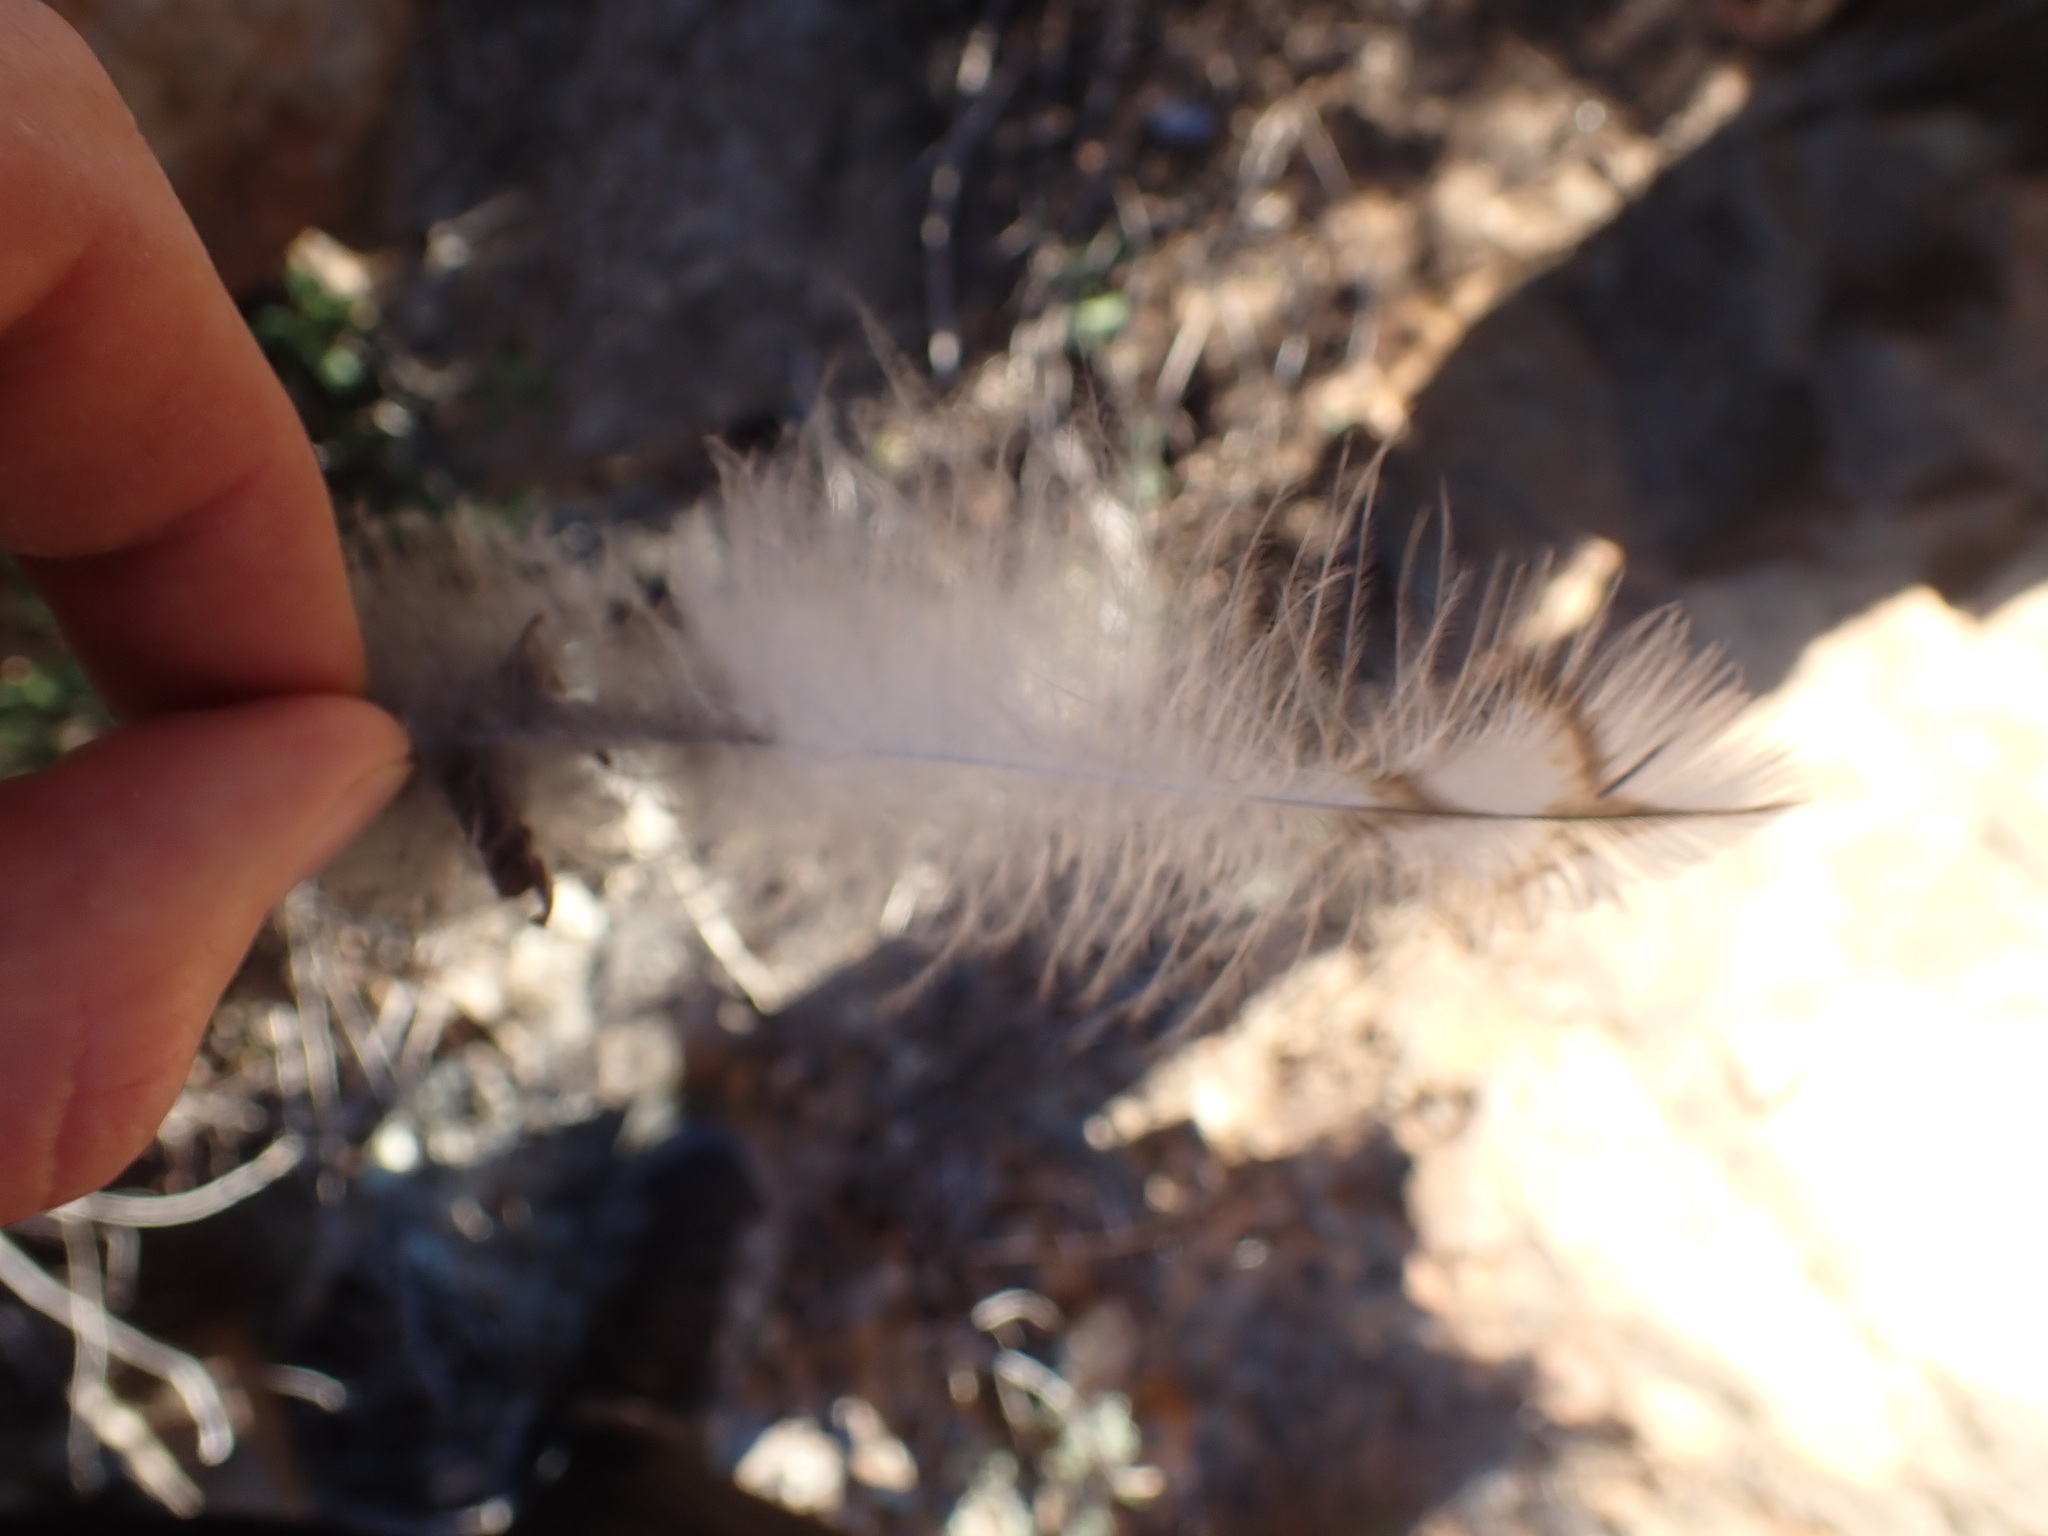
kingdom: Animalia
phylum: Chordata
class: Aves
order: Strigiformes
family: Strigidae
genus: Strix
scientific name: Strix aluco
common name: Tawny owl
